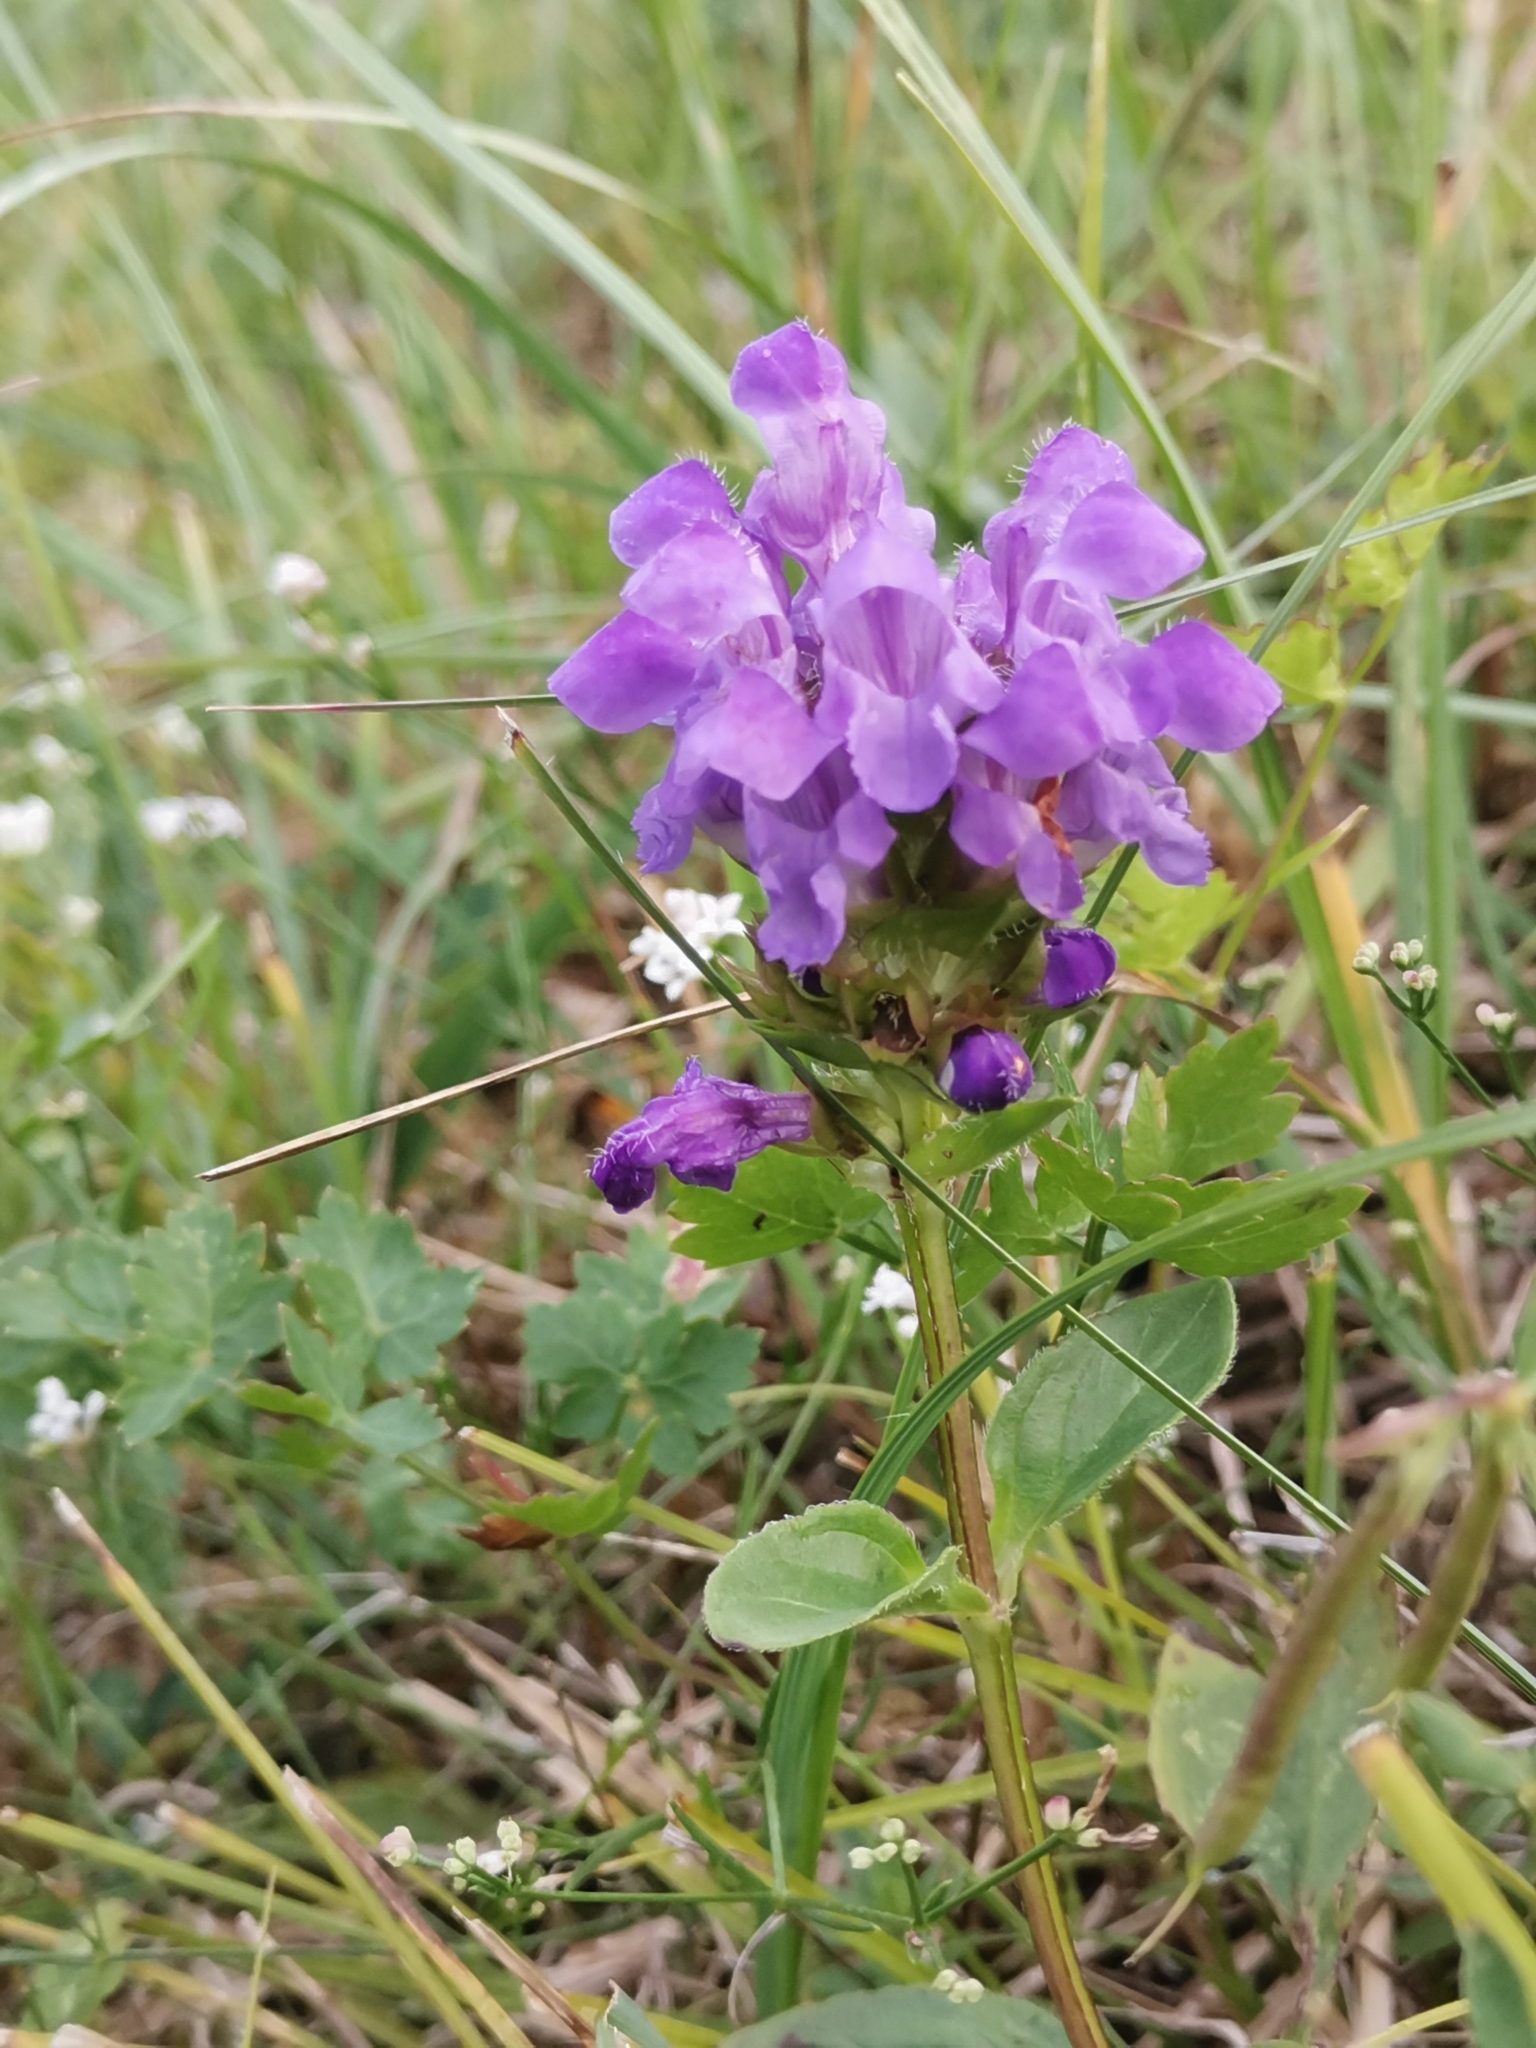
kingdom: Plantae
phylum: Tracheophyta
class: Magnoliopsida
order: Lamiales
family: Lamiaceae
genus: Prunella
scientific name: Prunella grandiflora
